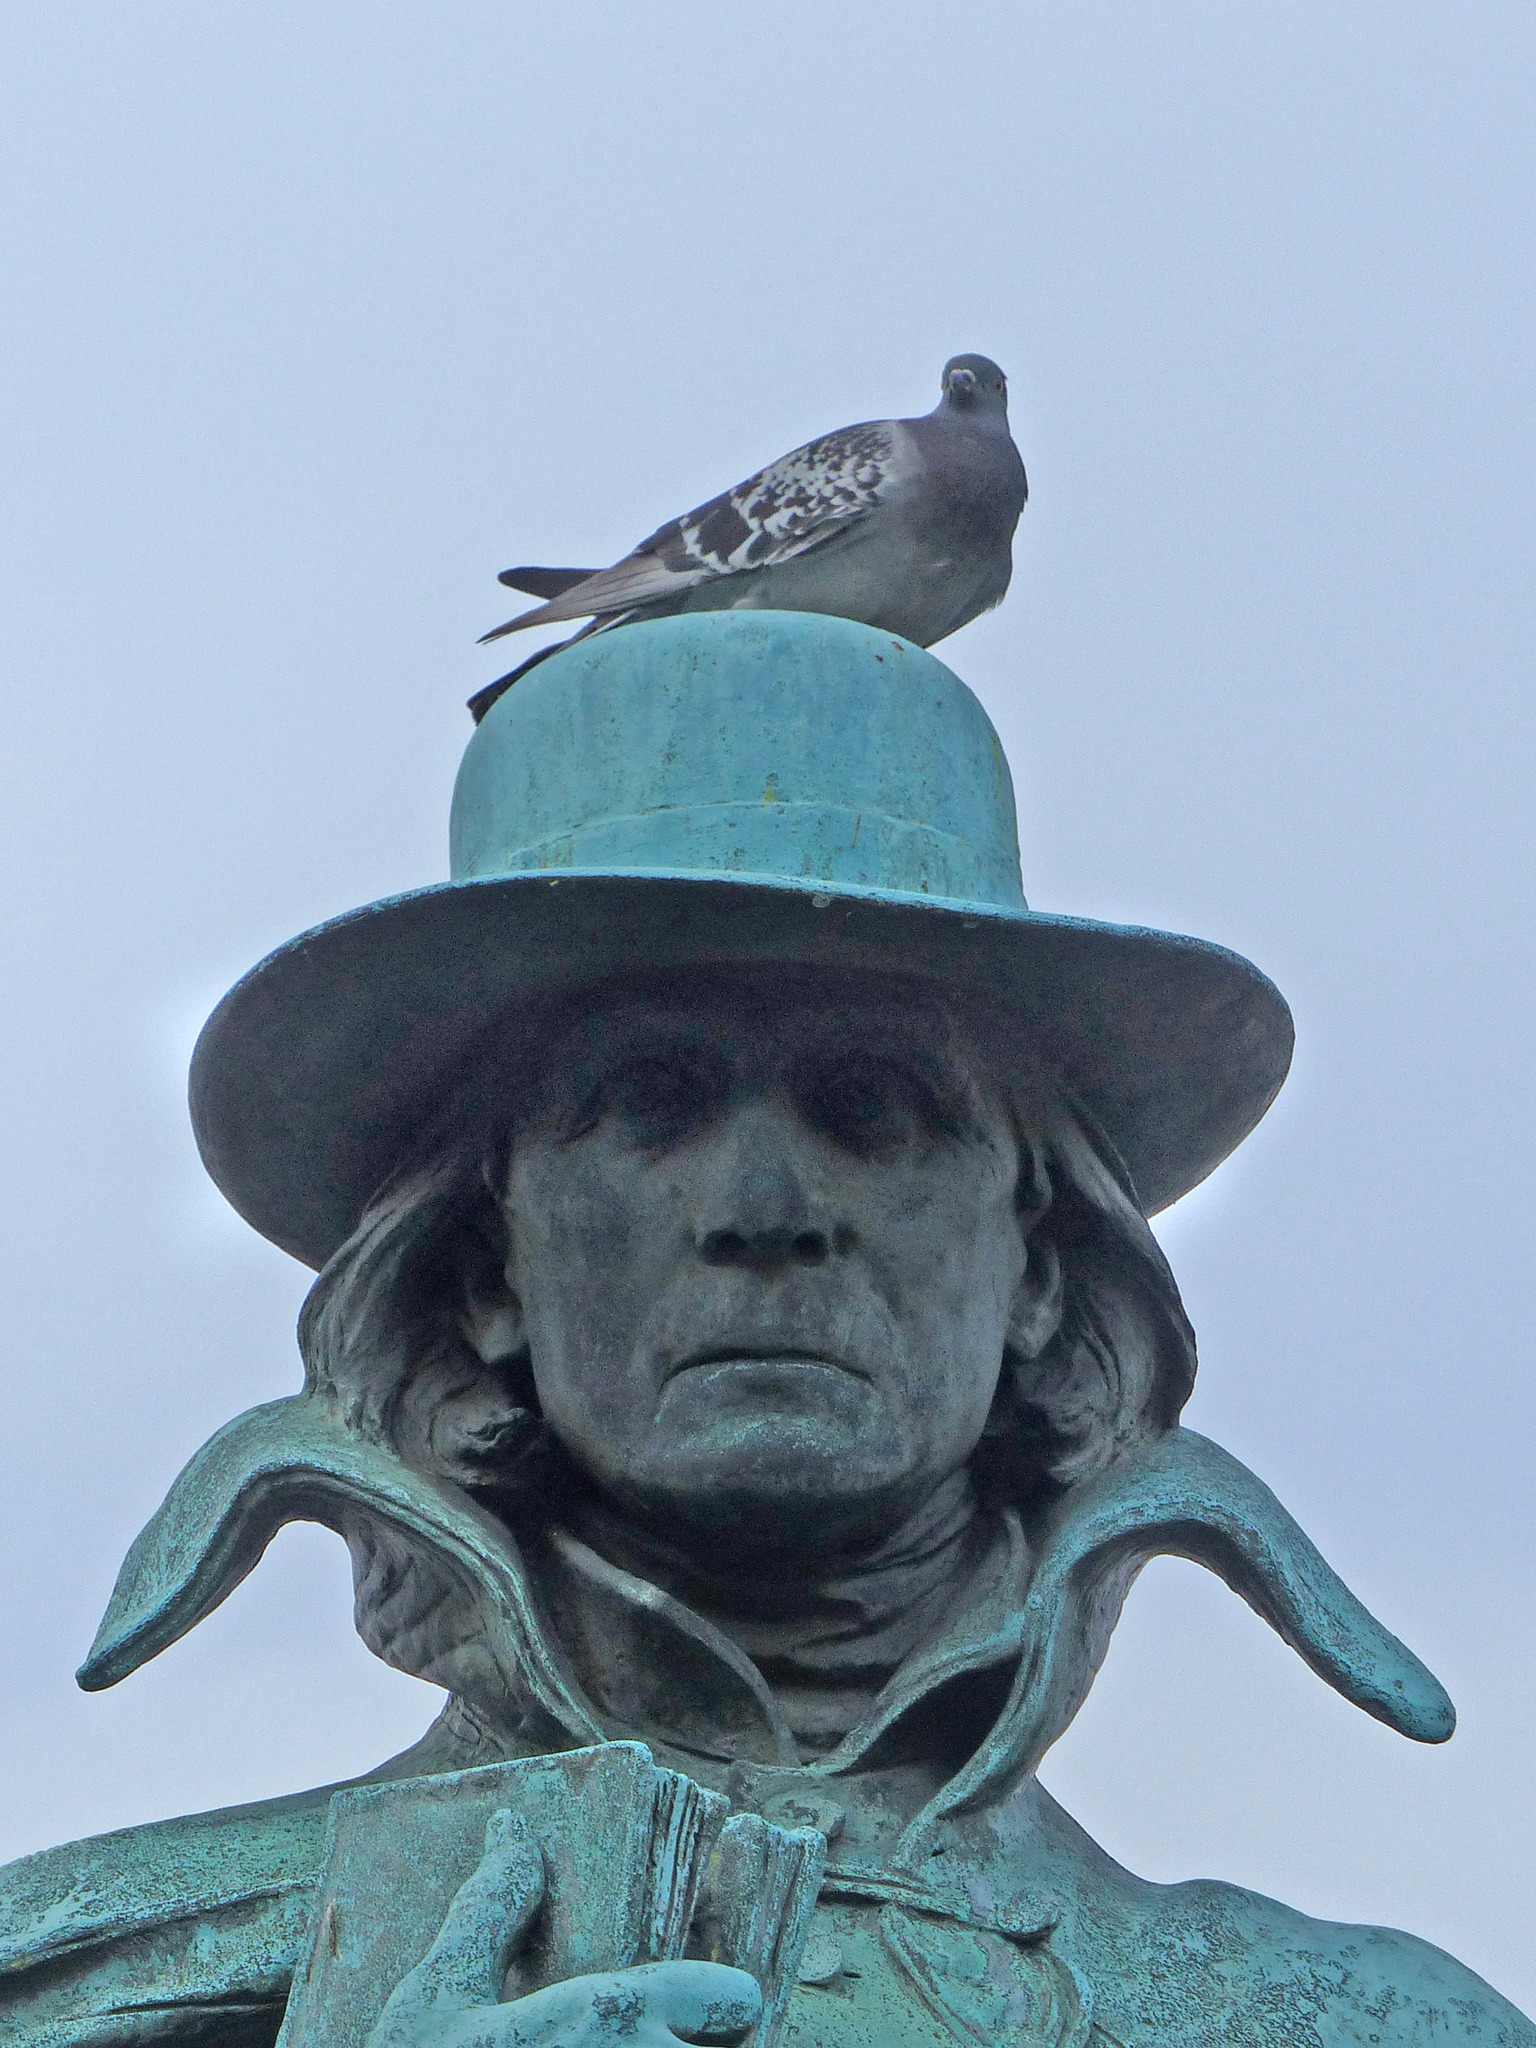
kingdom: Animalia
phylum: Chordata
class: Aves
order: Columbiformes
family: Columbidae
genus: Columba
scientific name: Columba livia
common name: Rock pigeon
